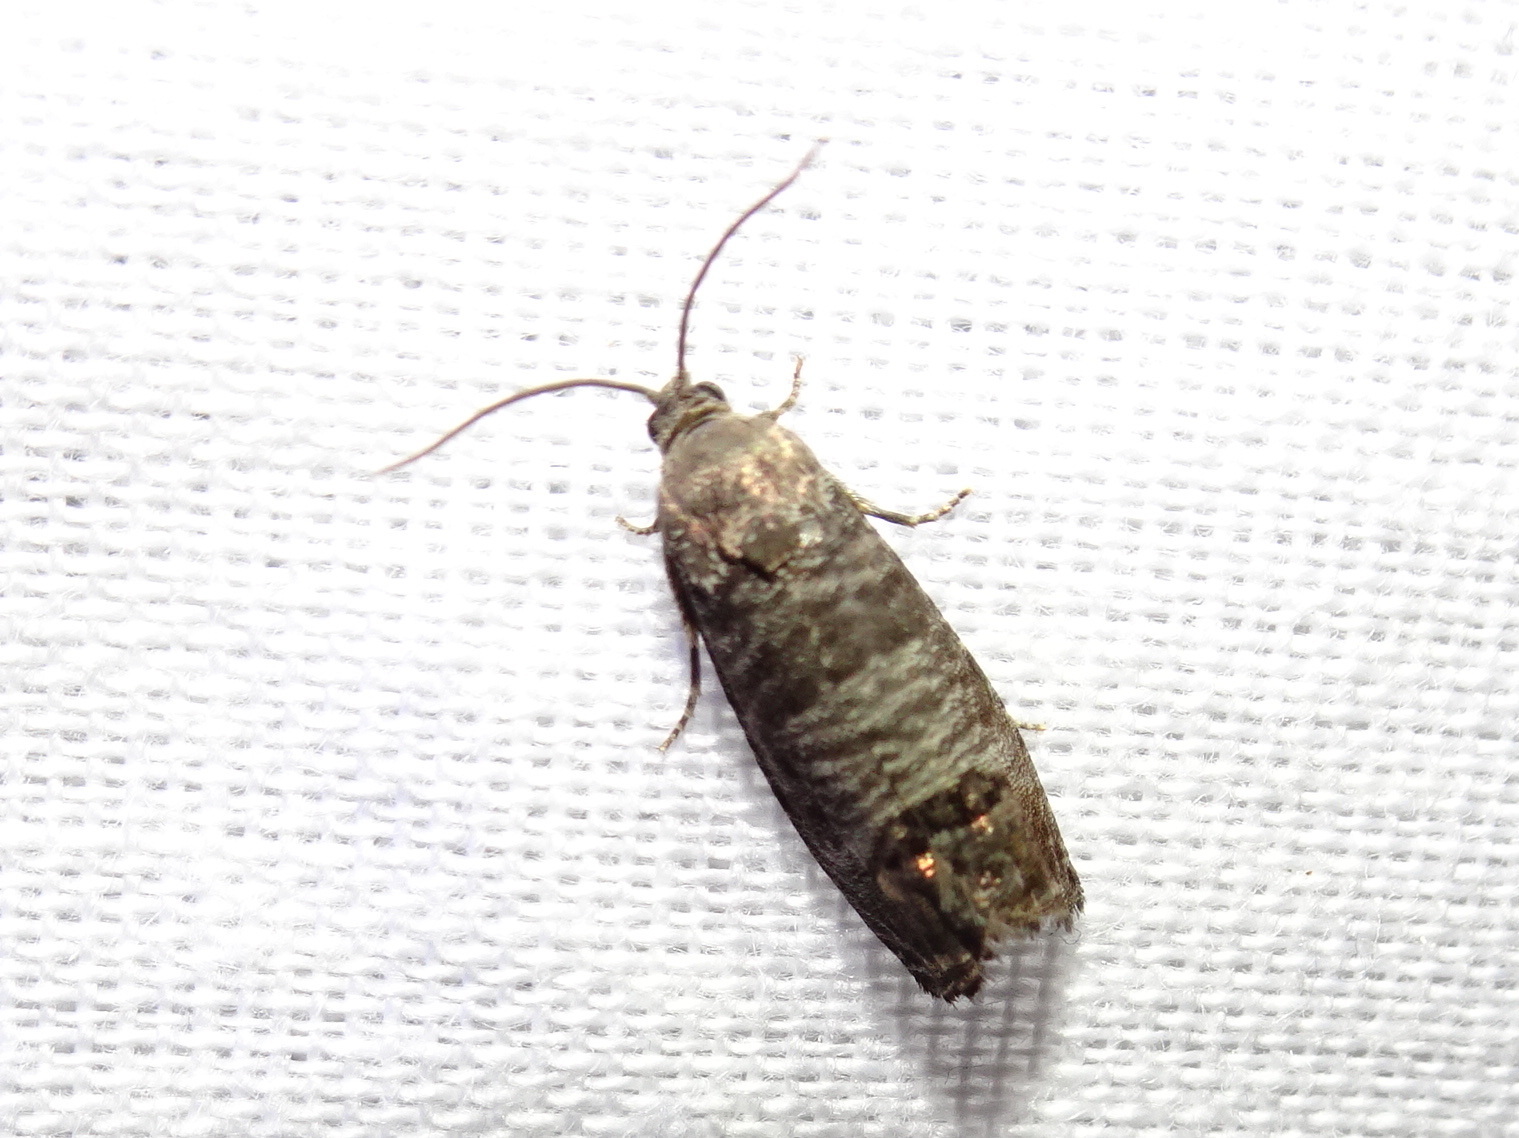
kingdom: Animalia
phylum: Arthropoda
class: Insecta
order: Lepidoptera
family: Tortricidae
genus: Cydia
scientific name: Cydia pomonella
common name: Codling moth
